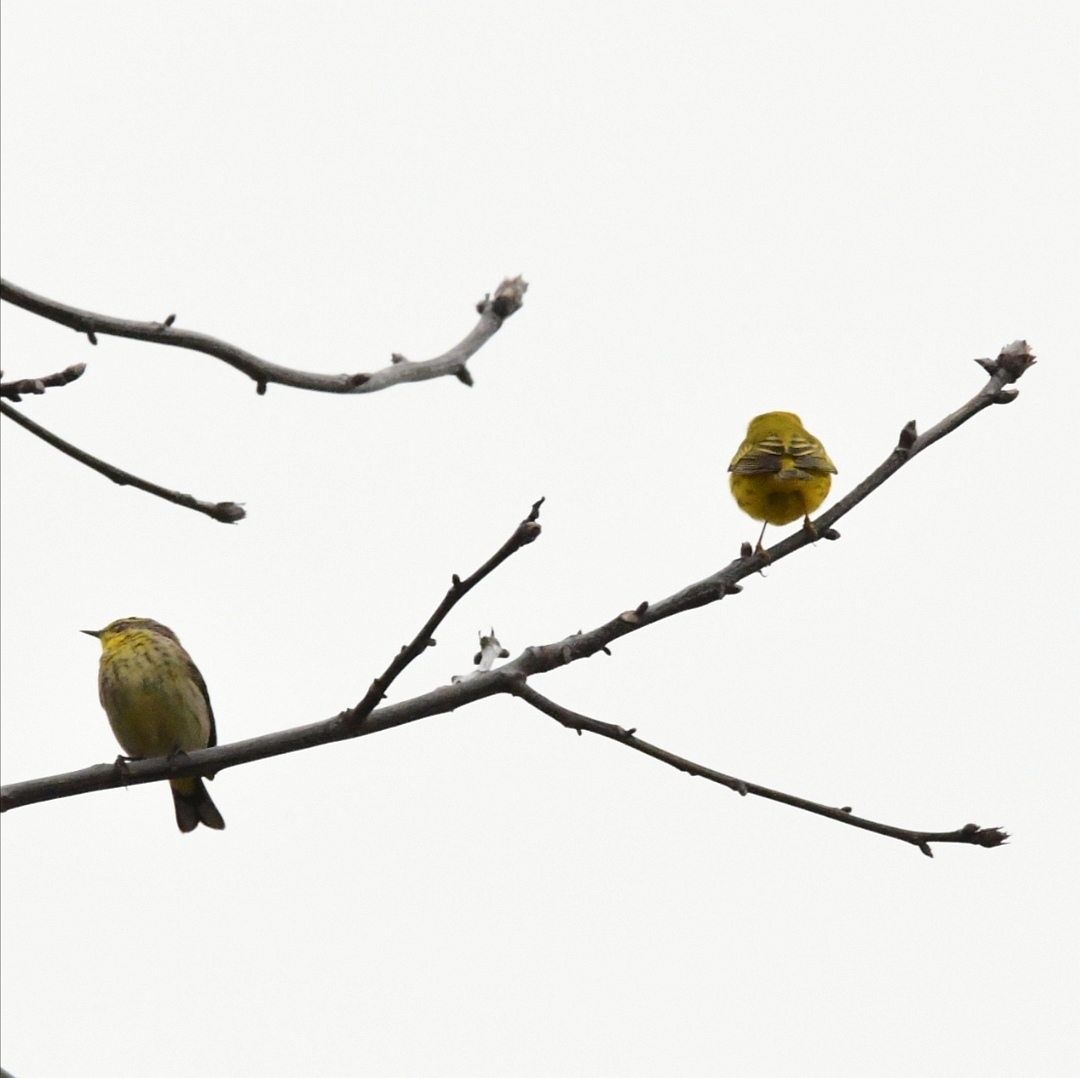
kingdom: Animalia
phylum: Chordata
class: Aves
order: Passeriformes
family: Parulidae
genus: Setophaga
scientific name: Setophaga palmarum
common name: Palm warbler
